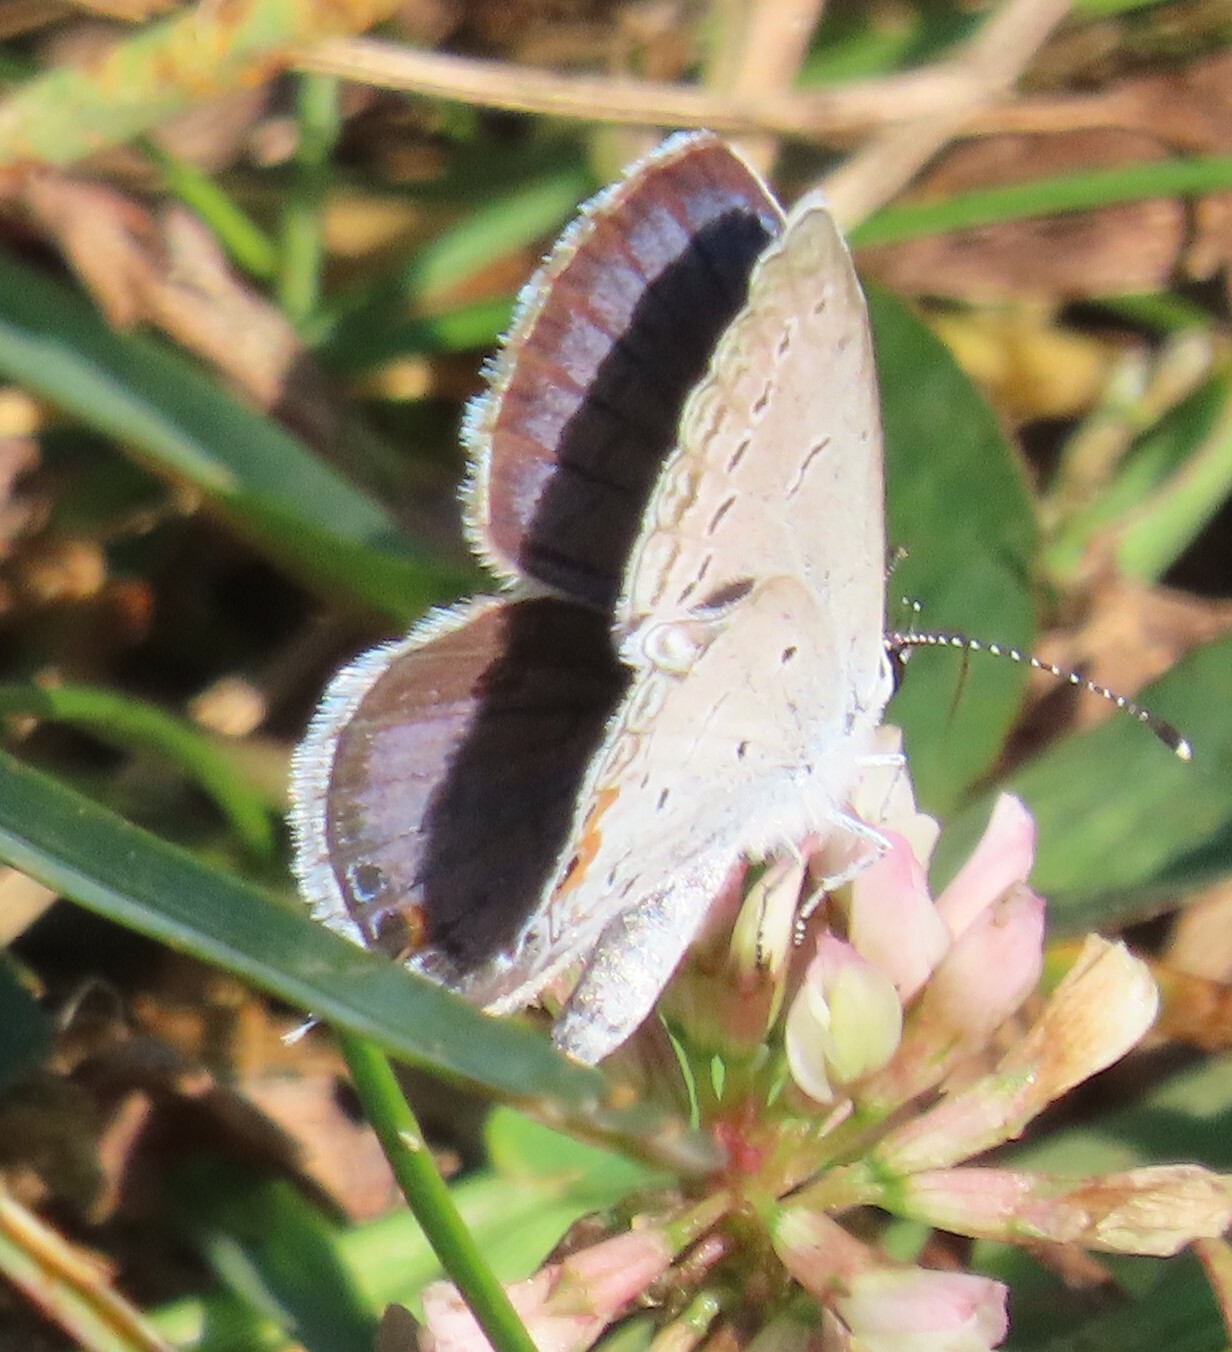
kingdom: Animalia
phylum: Arthropoda
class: Insecta
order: Lepidoptera
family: Lycaenidae
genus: Elkalyce
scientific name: Elkalyce comyntas
